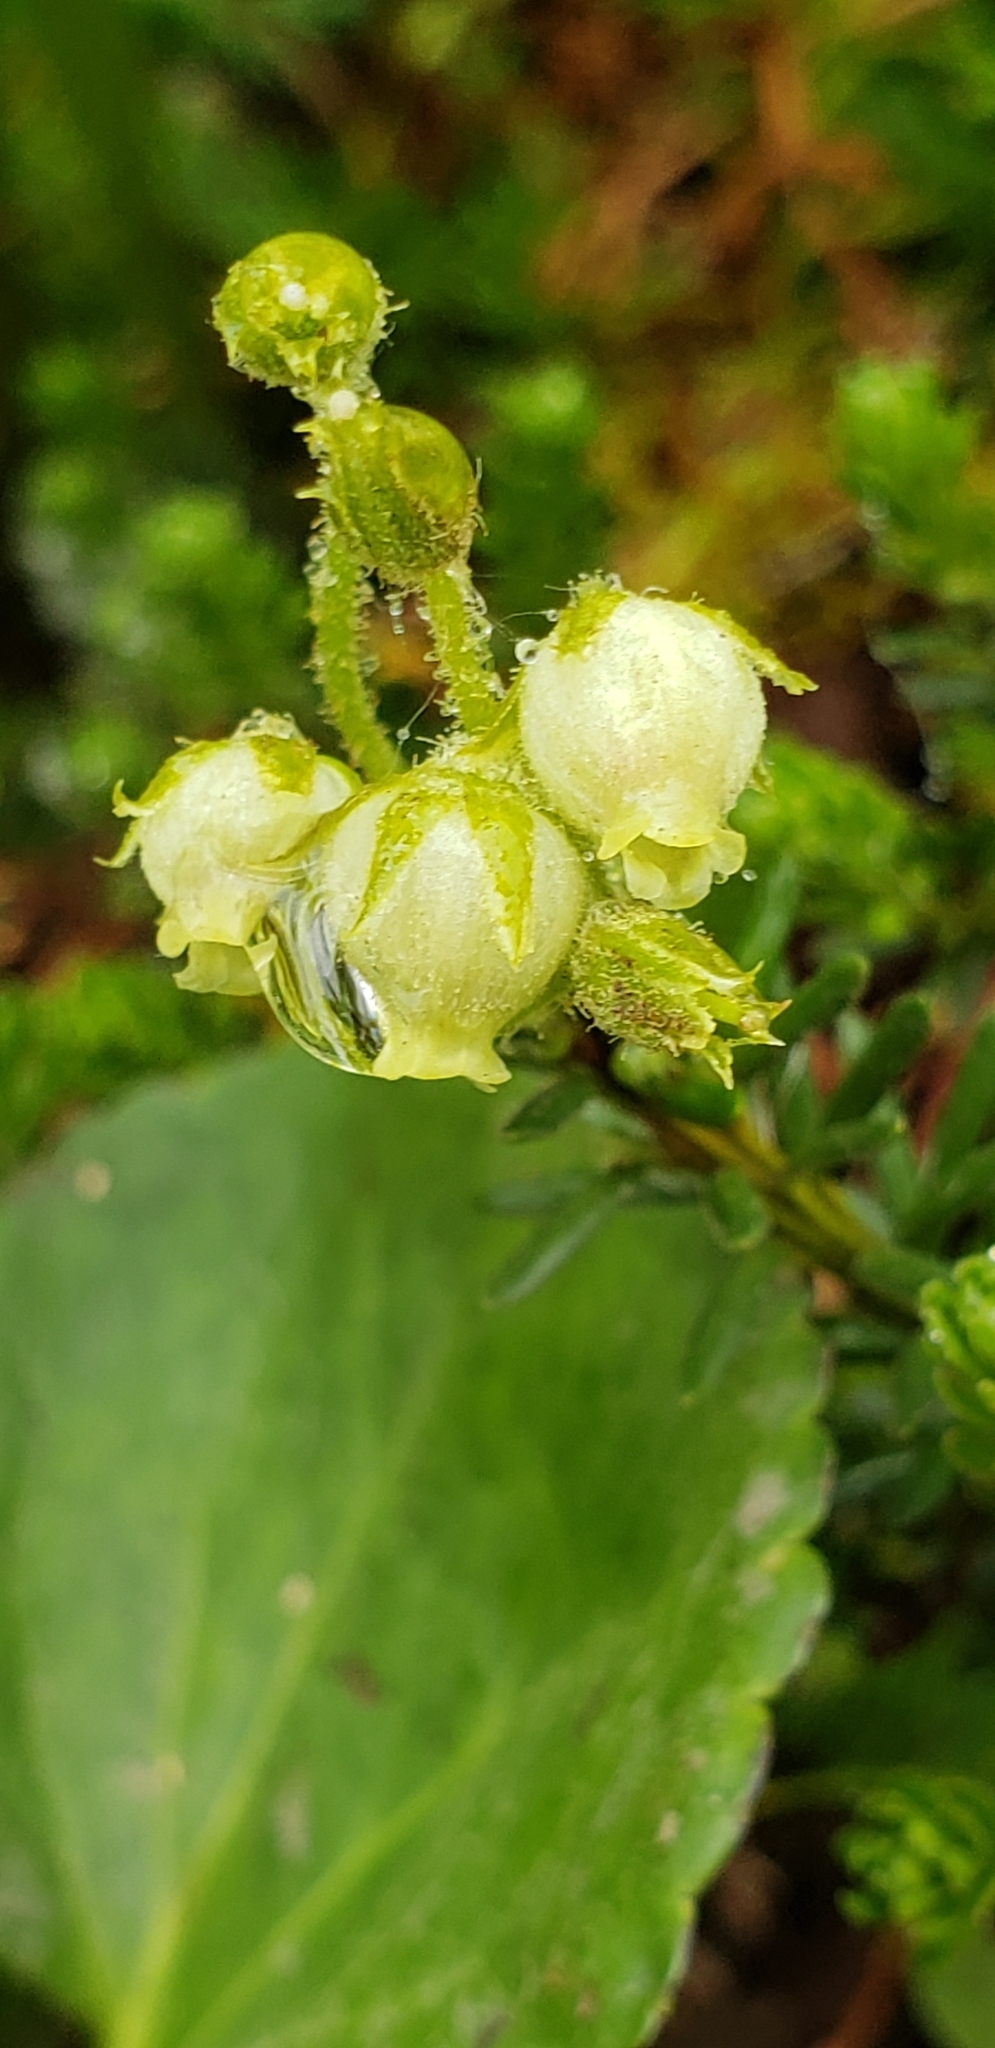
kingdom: Plantae
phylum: Tracheophyta
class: Magnoliopsida
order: Ericales
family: Ericaceae
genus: Phyllodoce
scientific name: Phyllodoce glanduliflora
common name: Cream mountain heather
